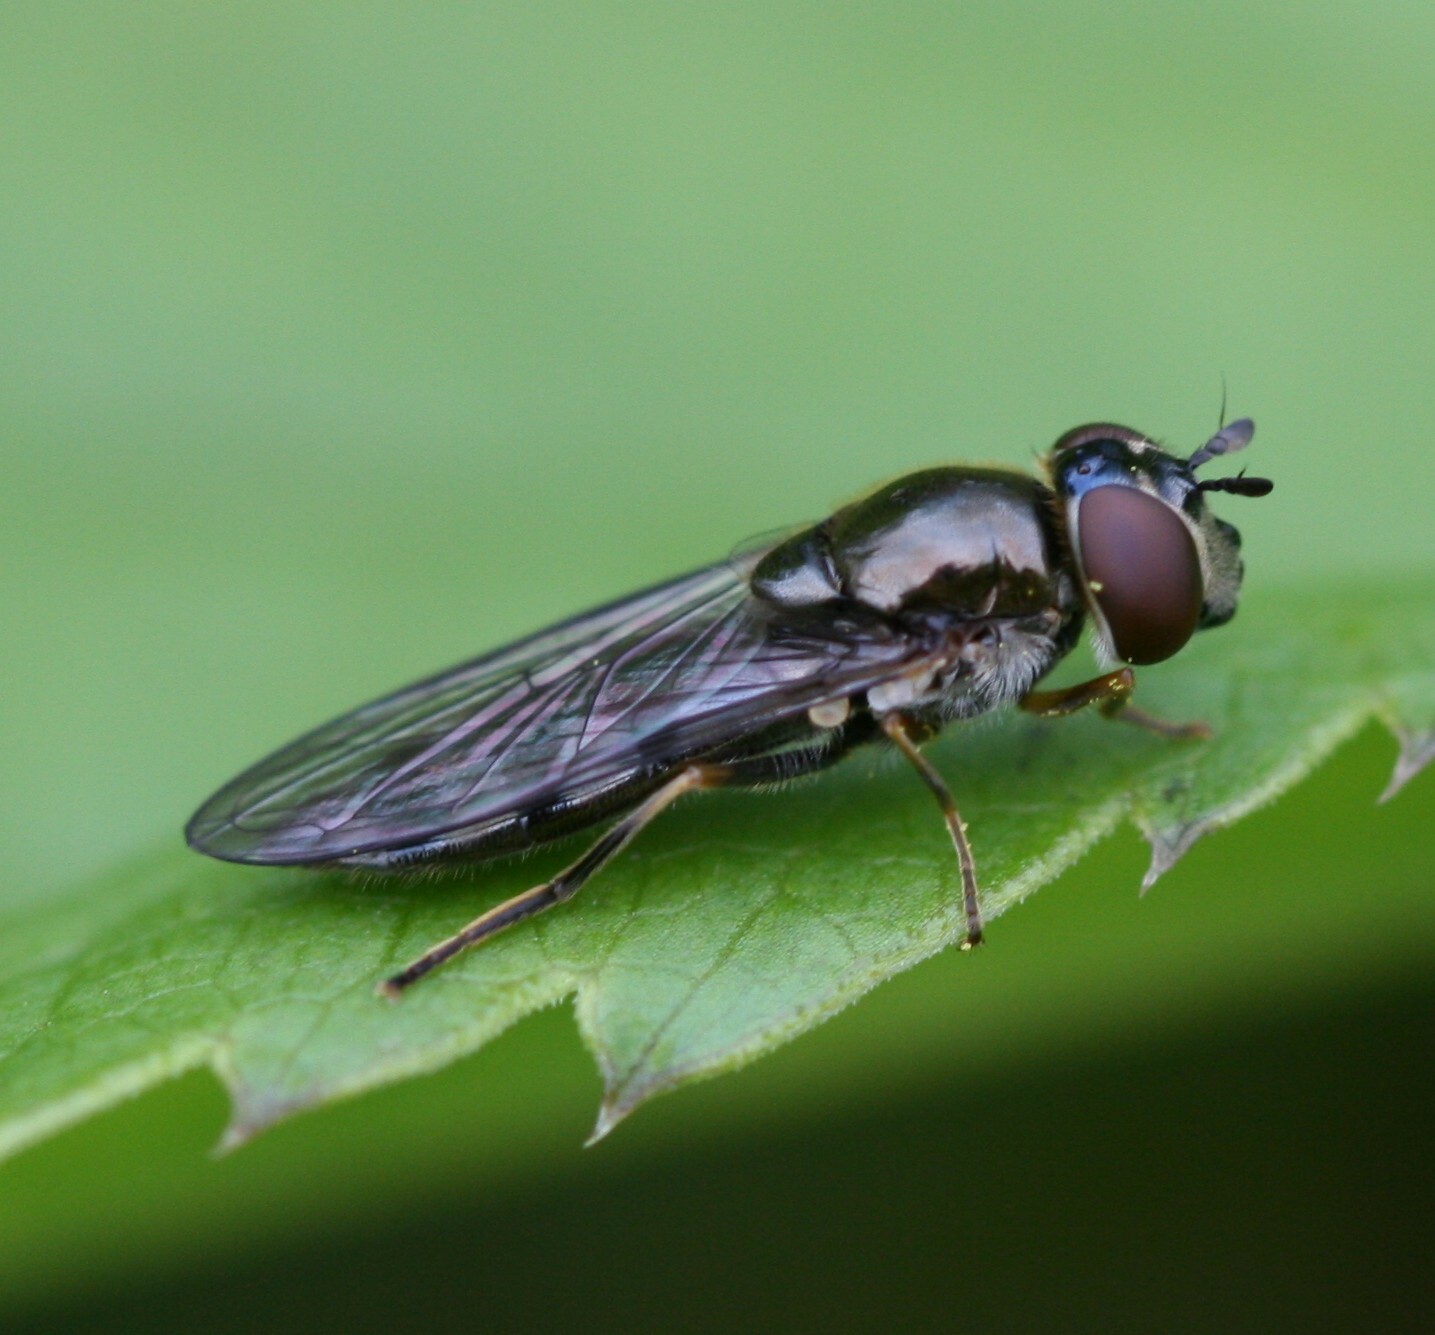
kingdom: Animalia
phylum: Arthropoda
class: Insecta
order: Diptera
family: Syrphidae
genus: Platycheirus
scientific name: Platycheirus albimanus
